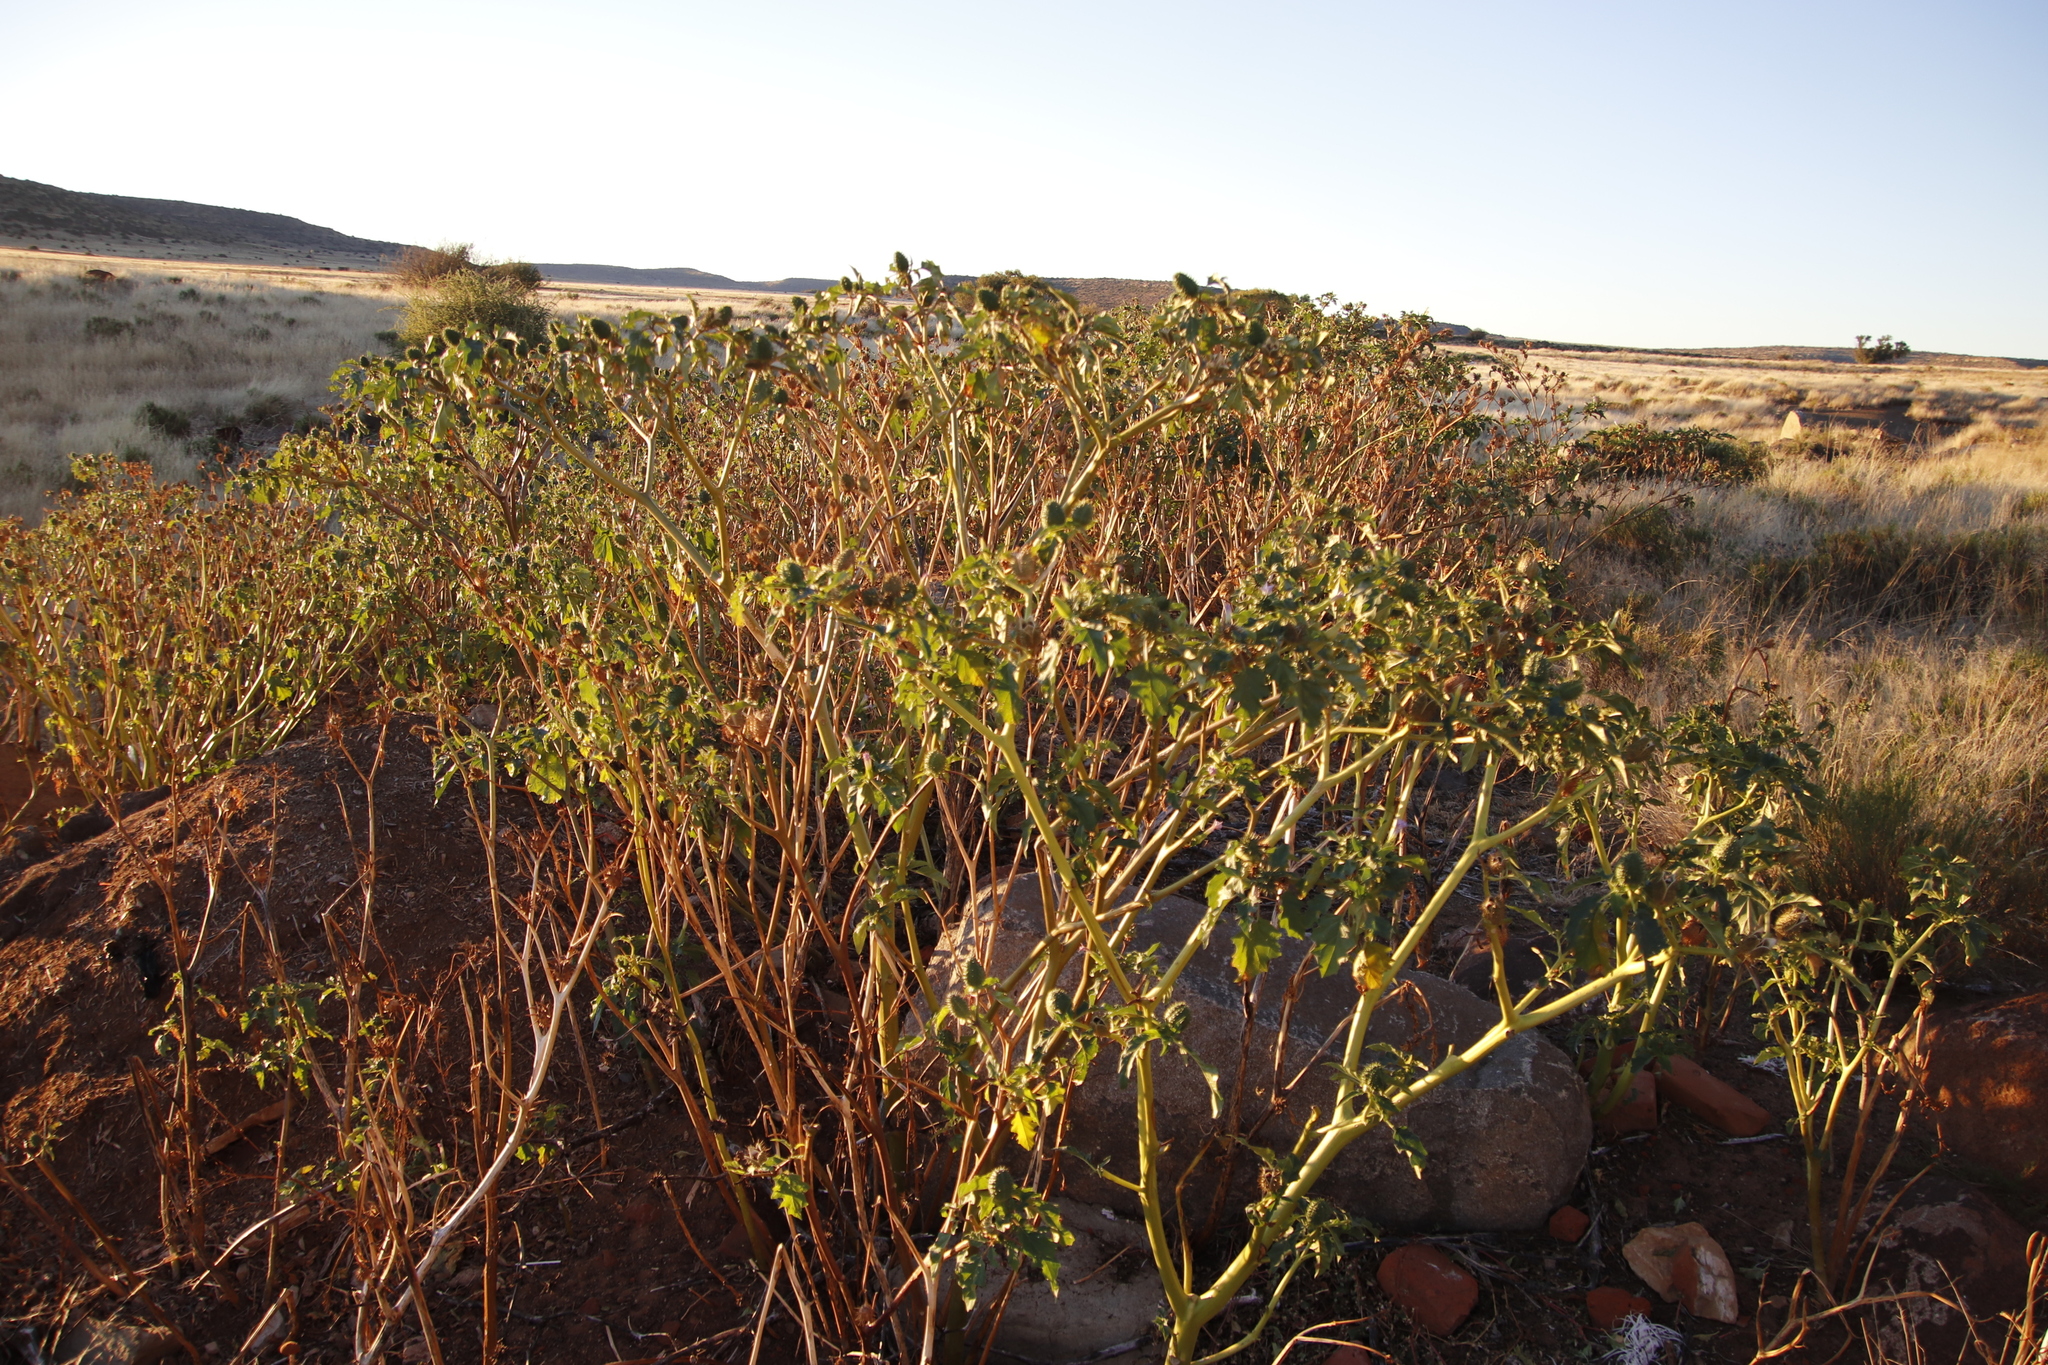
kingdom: Plantae
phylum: Tracheophyta
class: Magnoliopsida
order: Solanales
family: Solanaceae
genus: Datura
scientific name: Datura stramonium
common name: Thorn-apple
